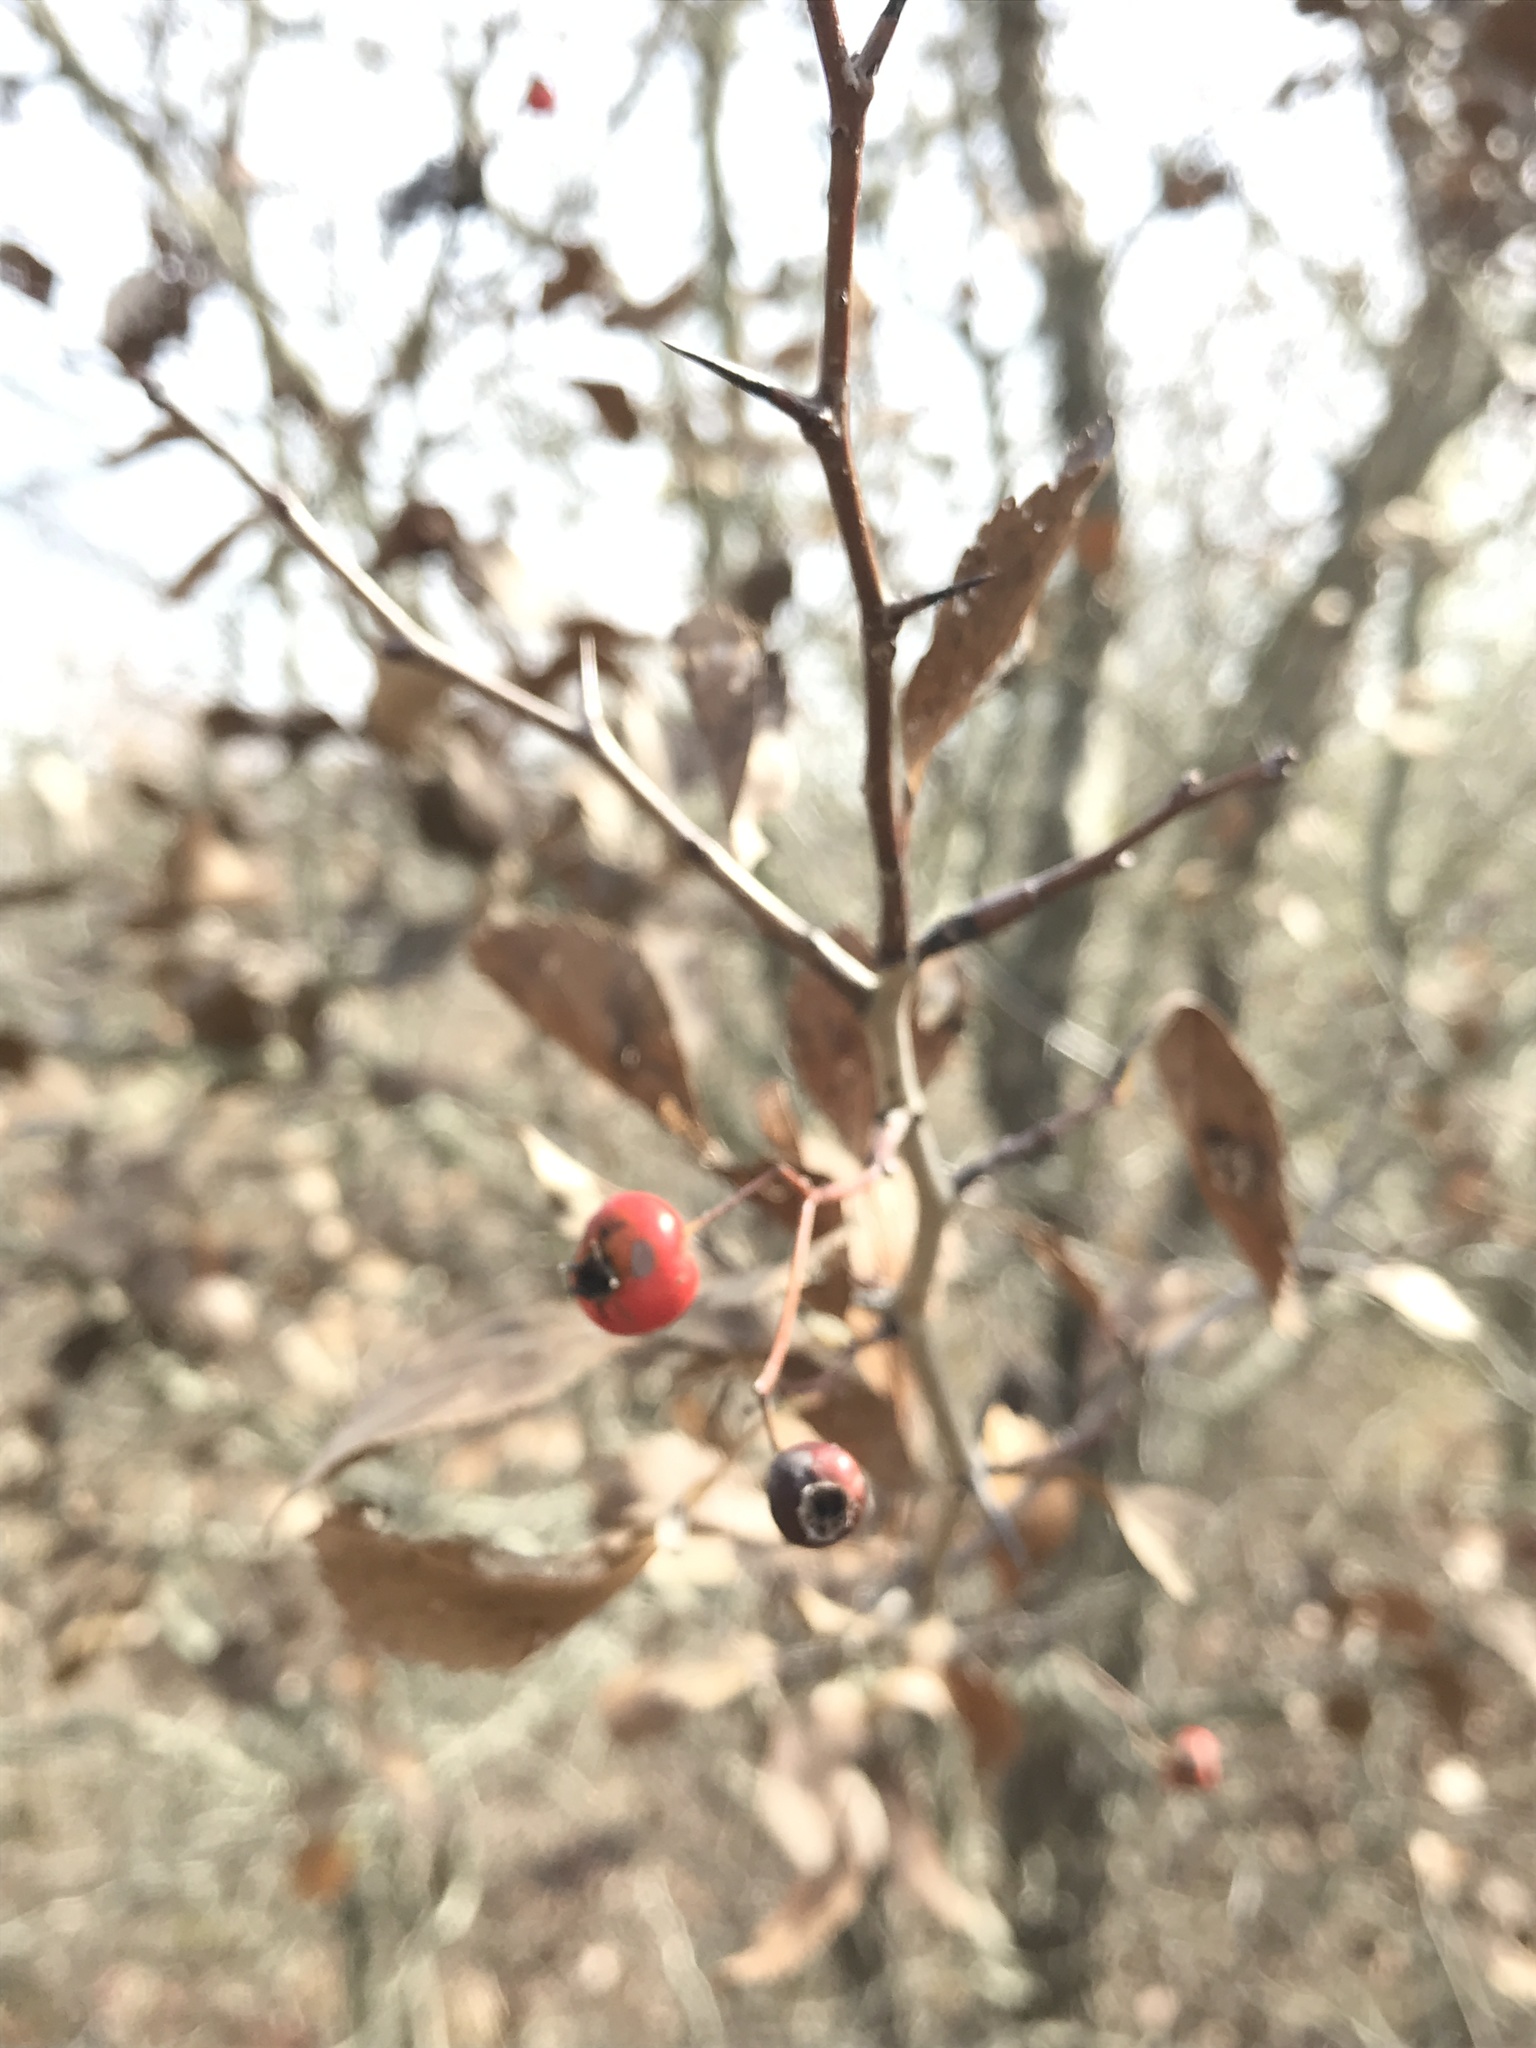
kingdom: Plantae
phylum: Tracheophyta
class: Magnoliopsida
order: Rosales
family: Rosaceae
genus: Crataegus
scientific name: Crataegus viridis
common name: Southernthorn
